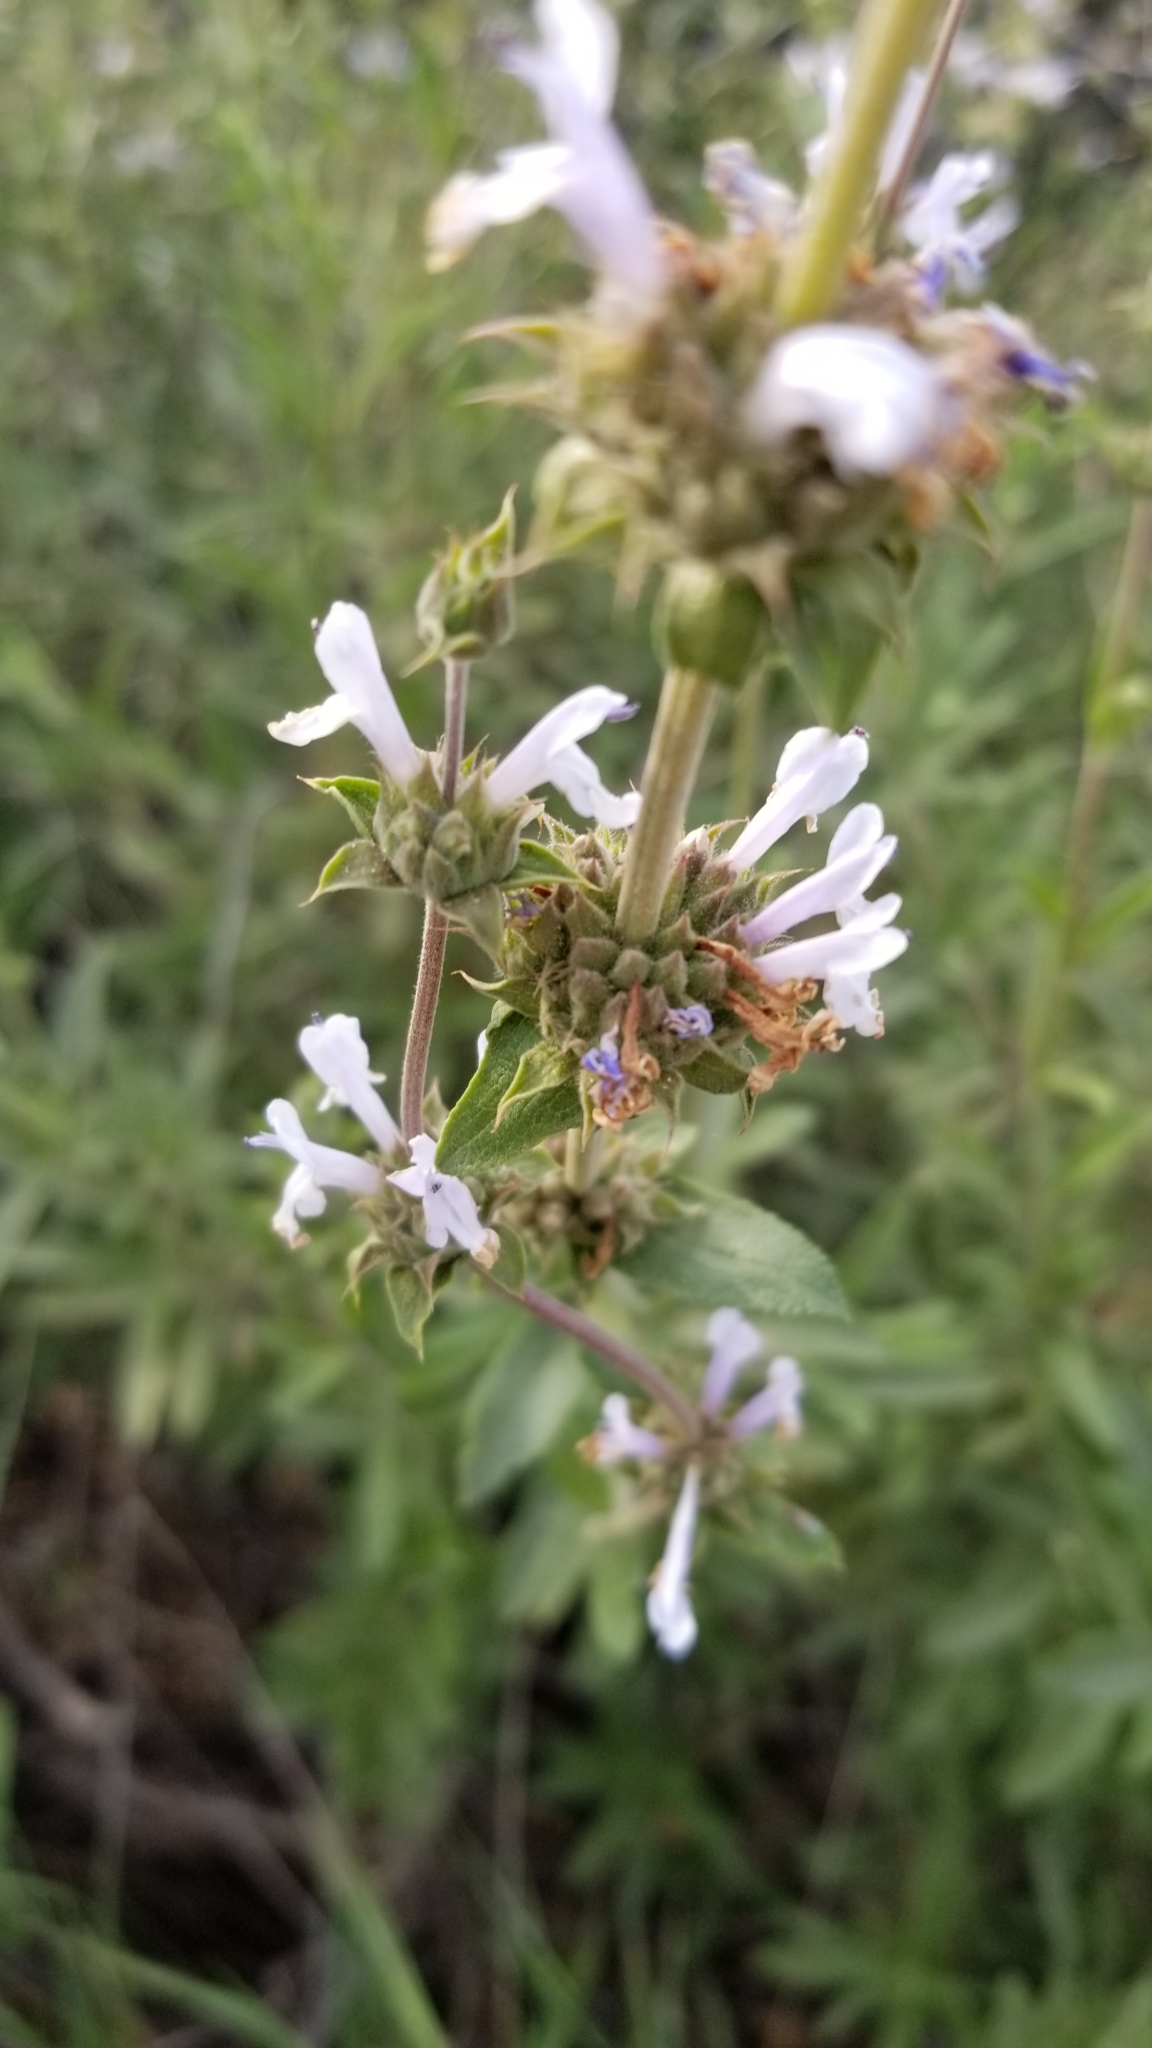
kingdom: Plantae
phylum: Tracheophyta
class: Magnoliopsida
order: Lamiales
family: Lamiaceae
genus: Salvia
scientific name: Salvia mellifera
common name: Black sage
